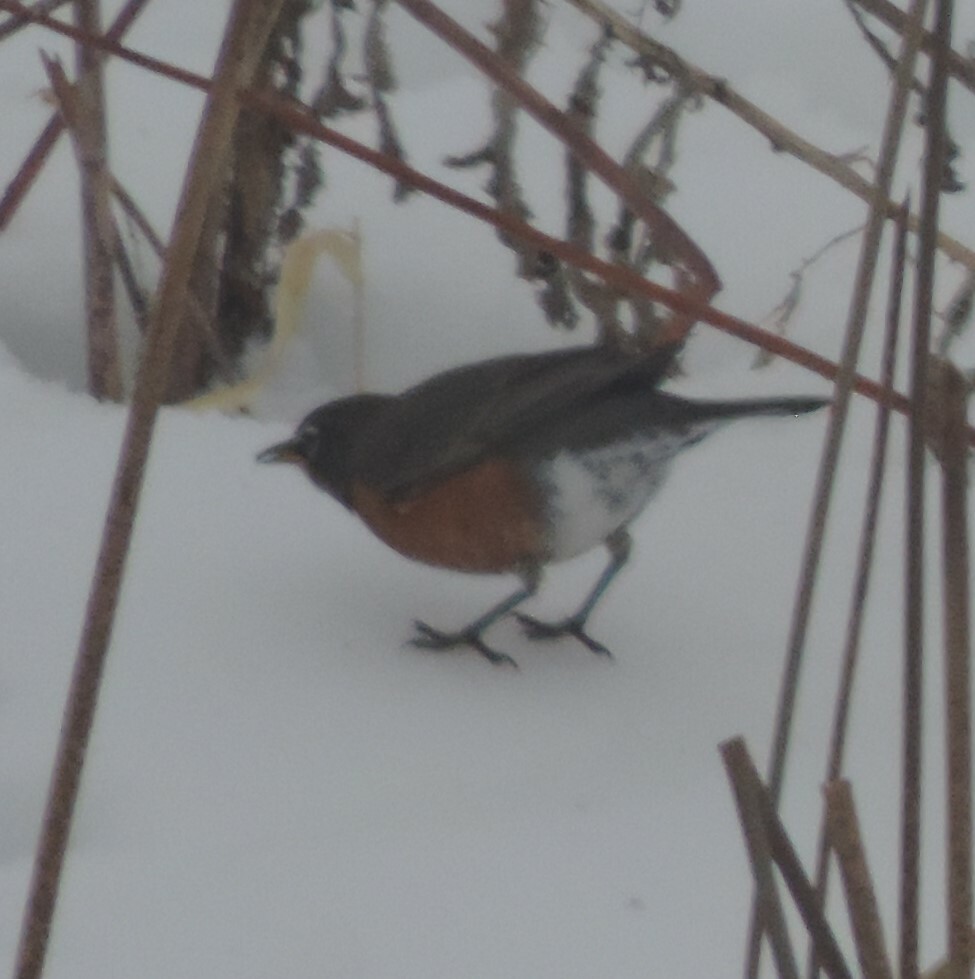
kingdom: Animalia
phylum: Chordata
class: Aves
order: Passeriformes
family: Turdidae
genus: Turdus
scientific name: Turdus migratorius
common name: American robin
